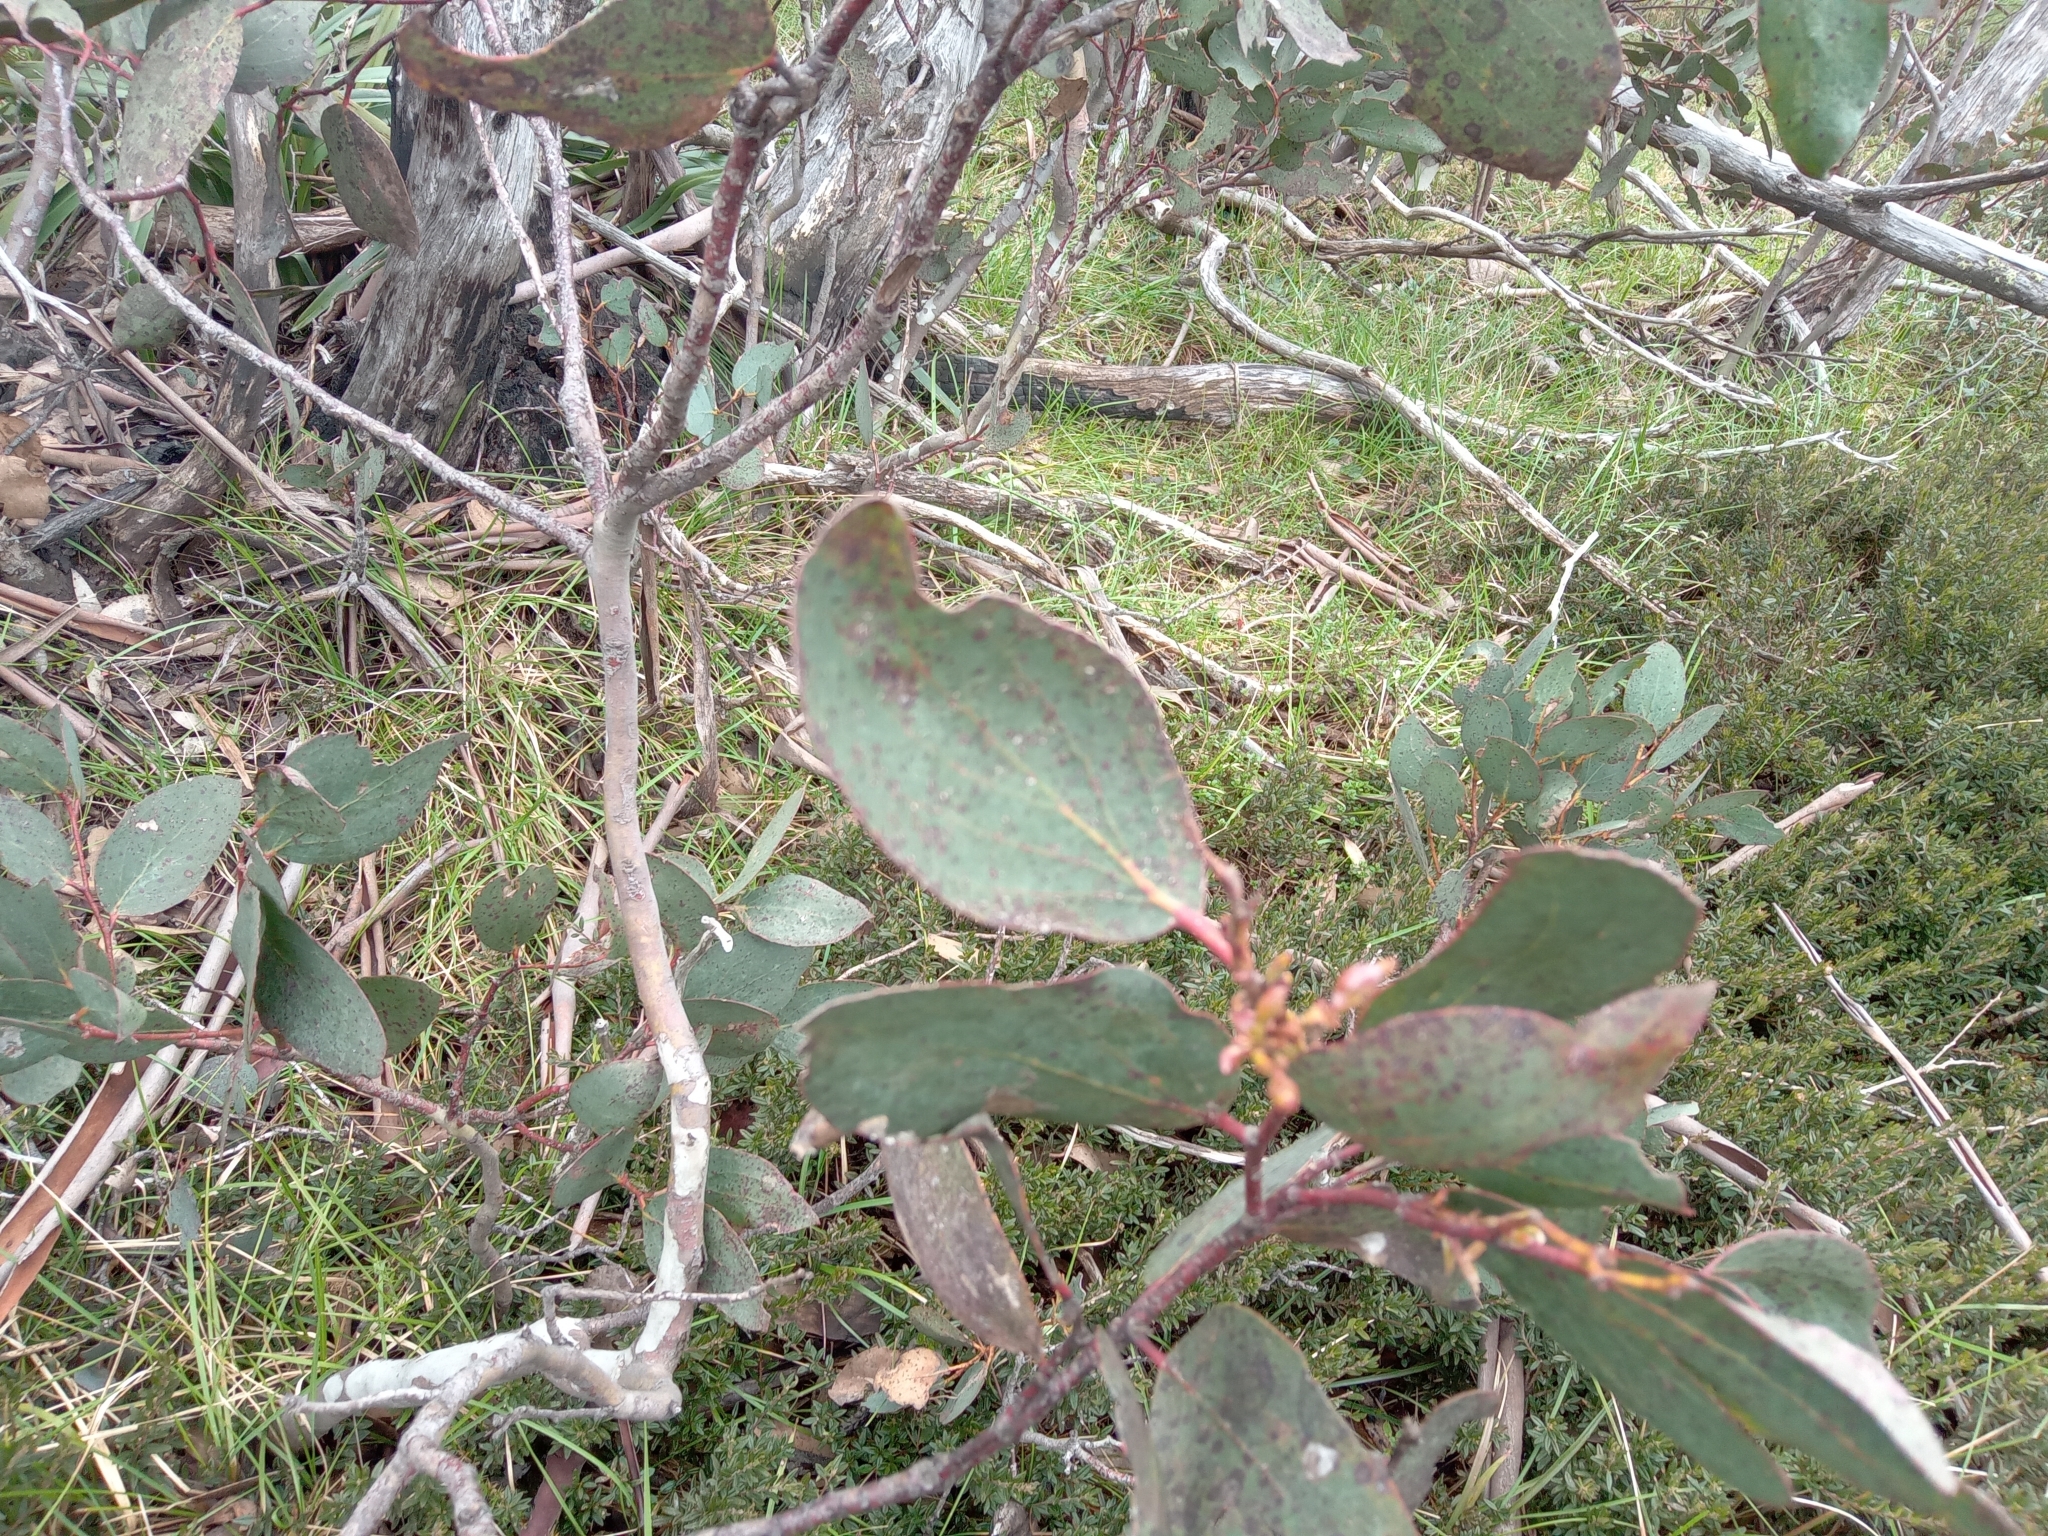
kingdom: Plantae
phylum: Tracheophyta
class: Magnoliopsida
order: Myrtales
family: Myrtaceae
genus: Eucalyptus
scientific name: Eucalyptus pauciflora
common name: Snow gum
